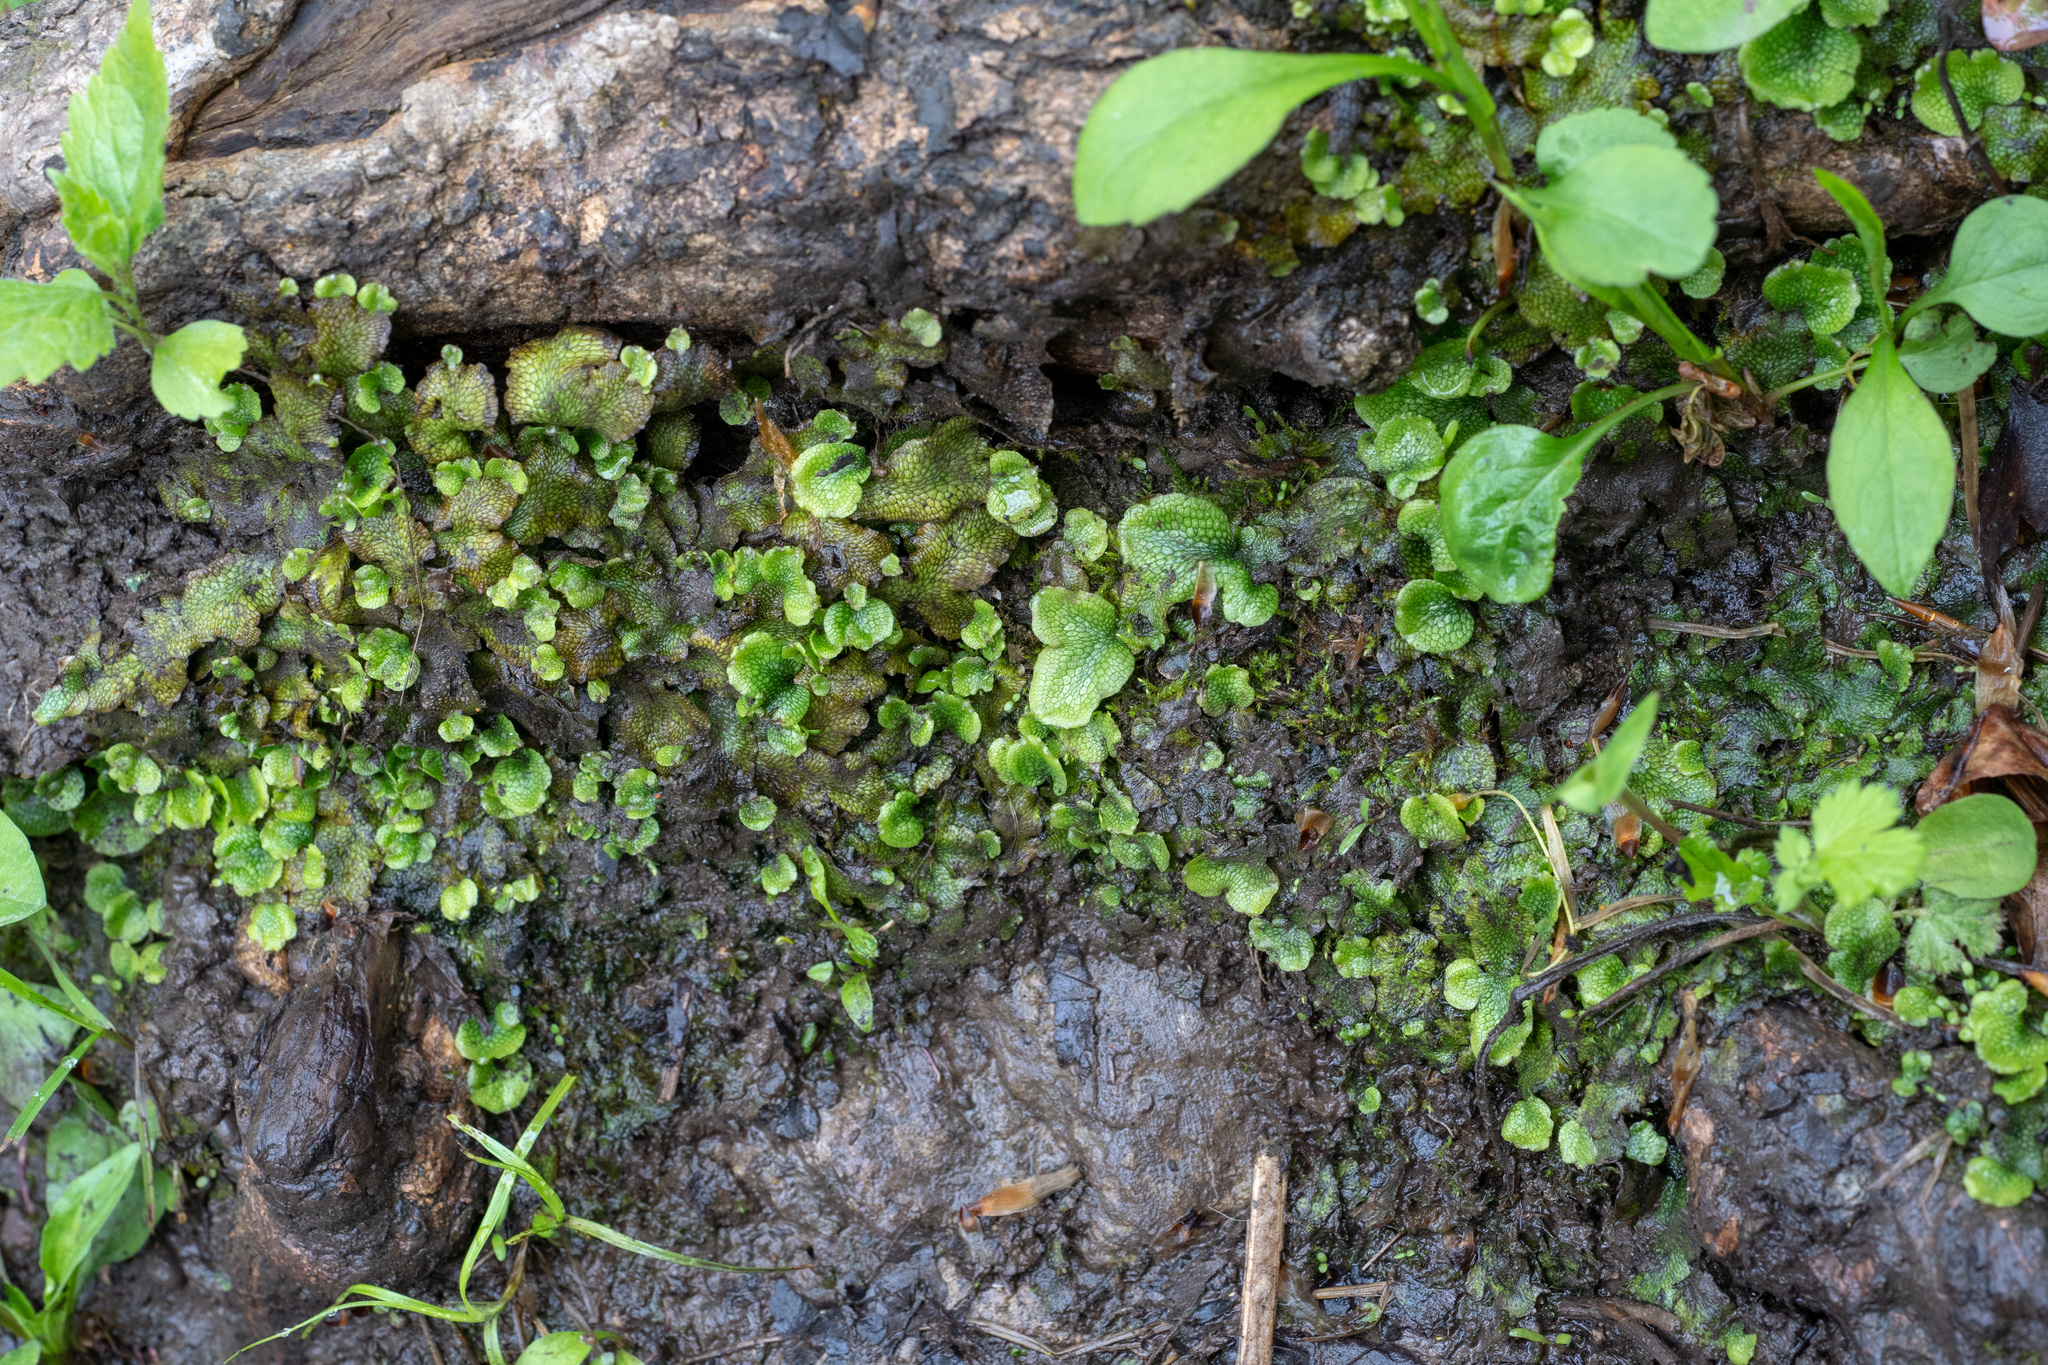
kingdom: Plantae
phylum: Marchantiophyta
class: Marchantiopsida
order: Marchantiales
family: Conocephalaceae
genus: Conocephalum
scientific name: Conocephalum salebrosum
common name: Cat-tongue liverwort
